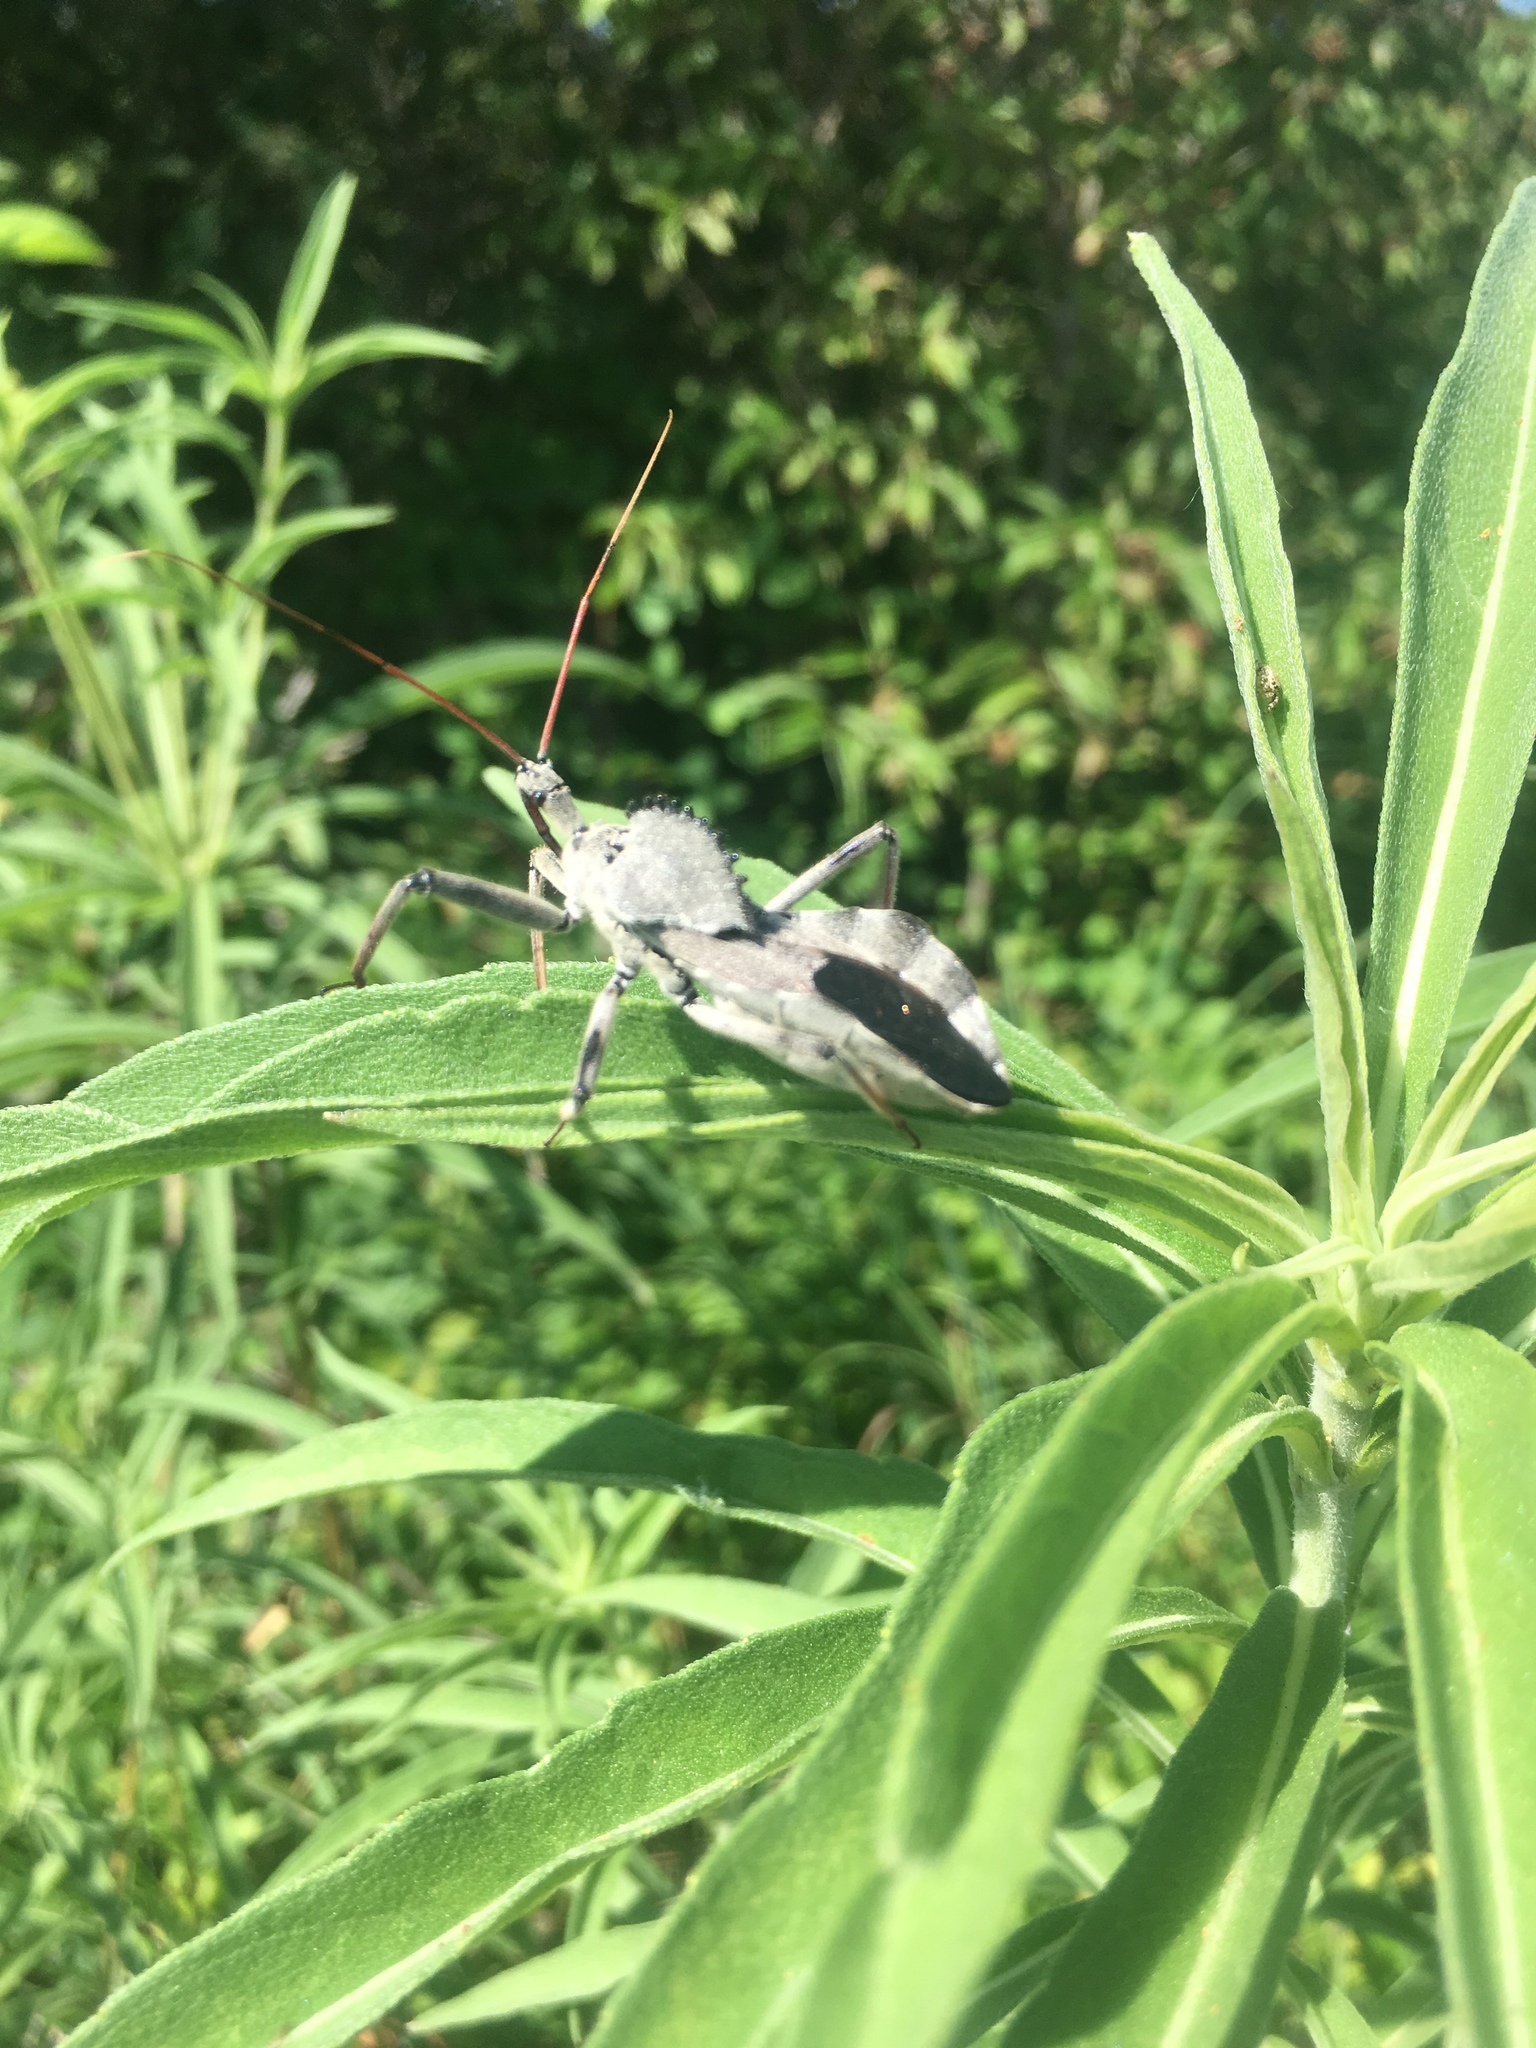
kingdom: Animalia
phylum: Arthropoda
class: Insecta
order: Hemiptera
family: Reduviidae
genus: Arilus
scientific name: Arilus cristatus
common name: North american wheel bug
